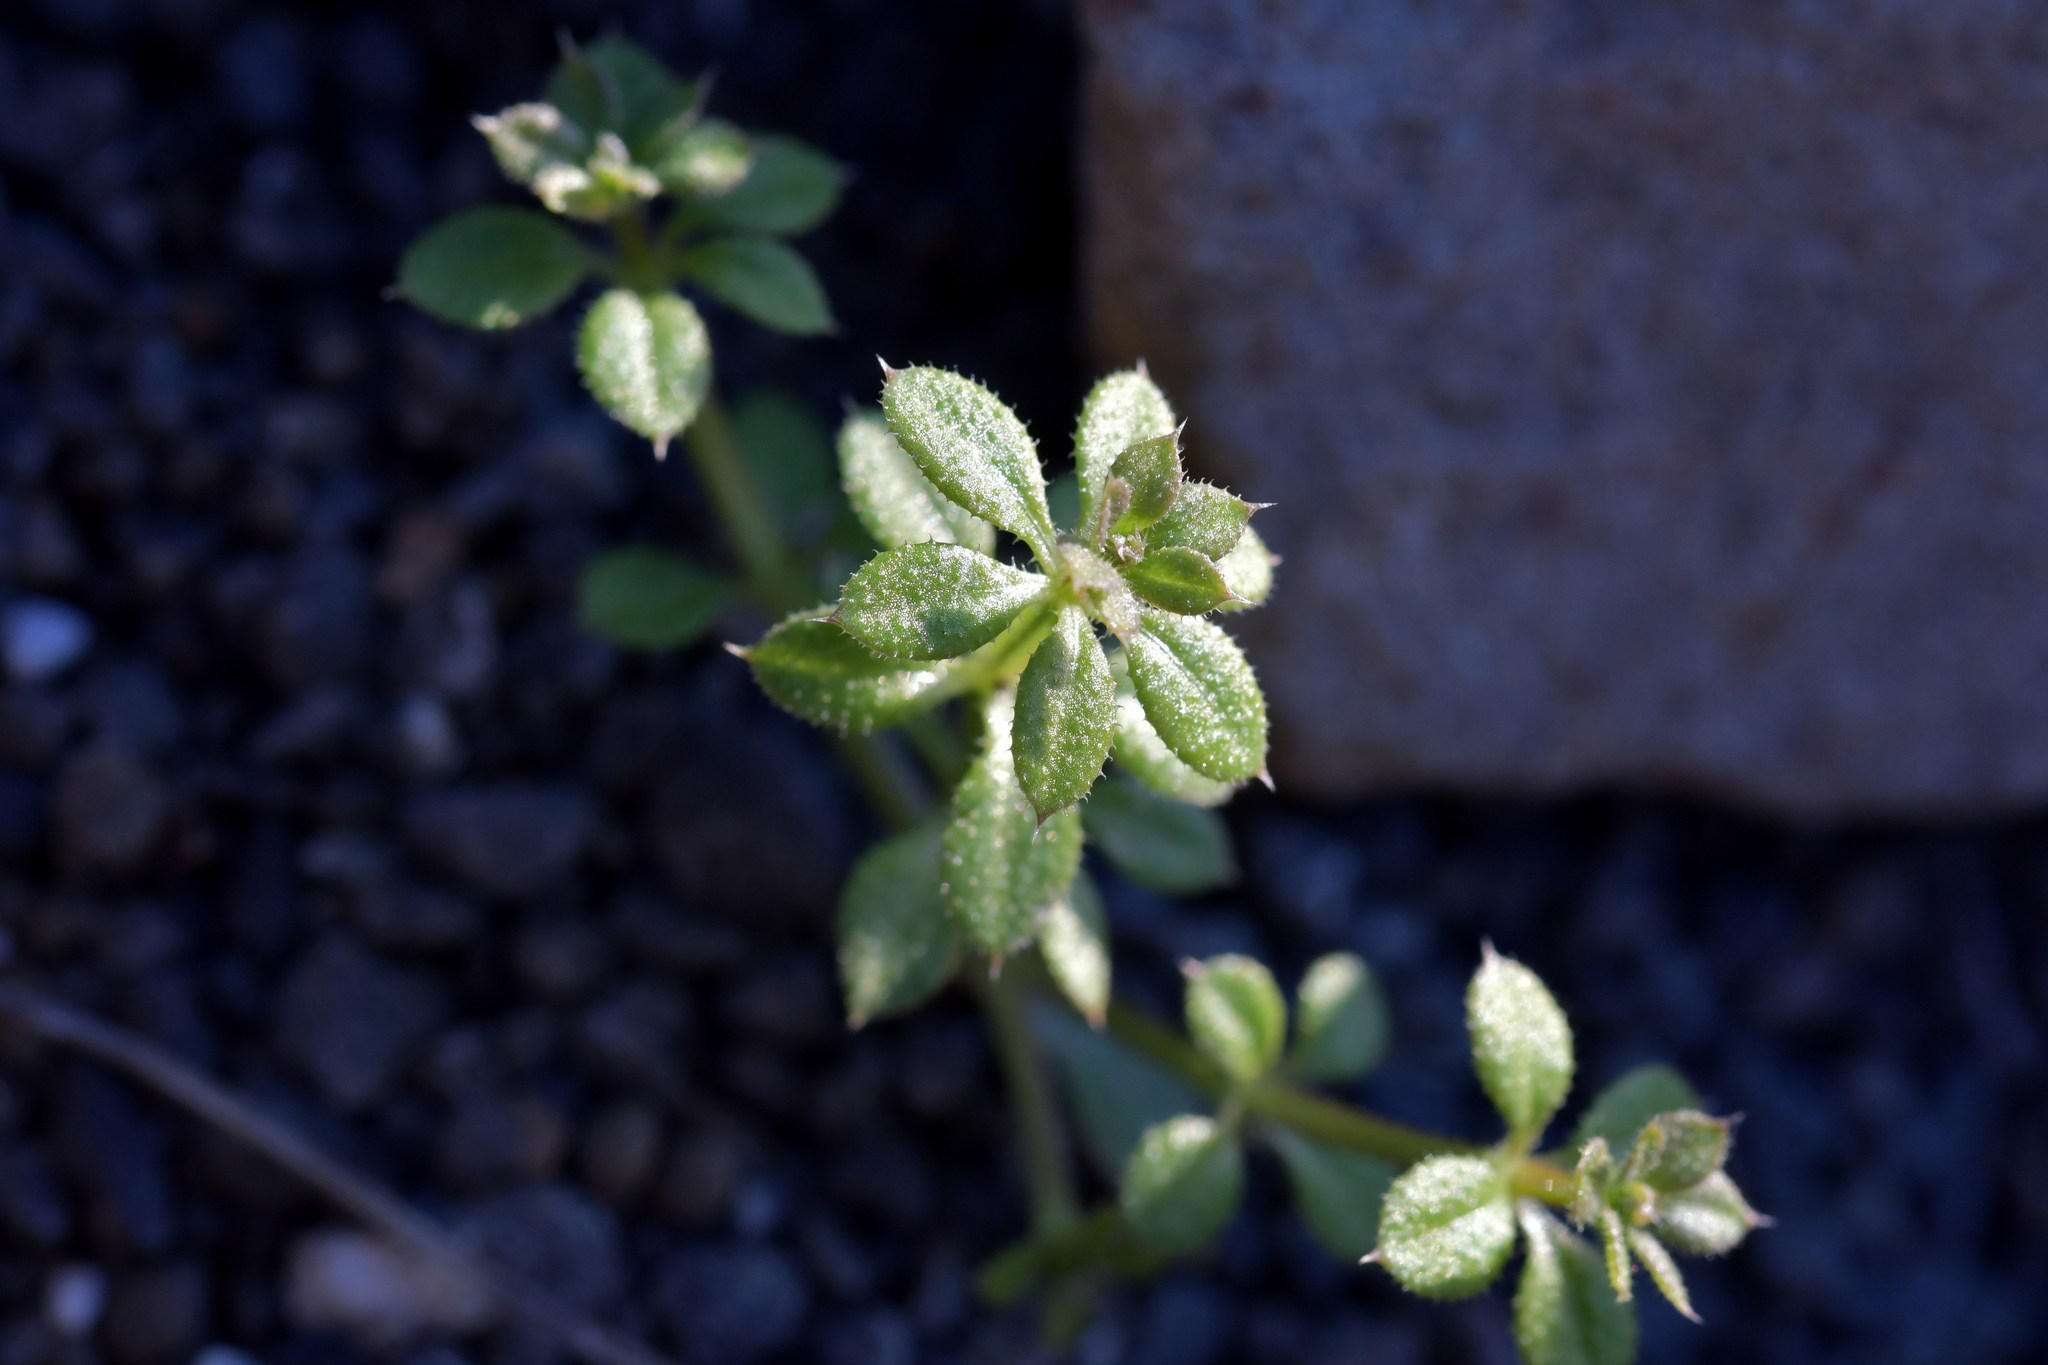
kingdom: Plantae
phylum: Tracheophyta
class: Magnoliopsida
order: Gentianales
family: Rubiaceae
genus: Galium
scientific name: Galium aparine
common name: Cleavers
